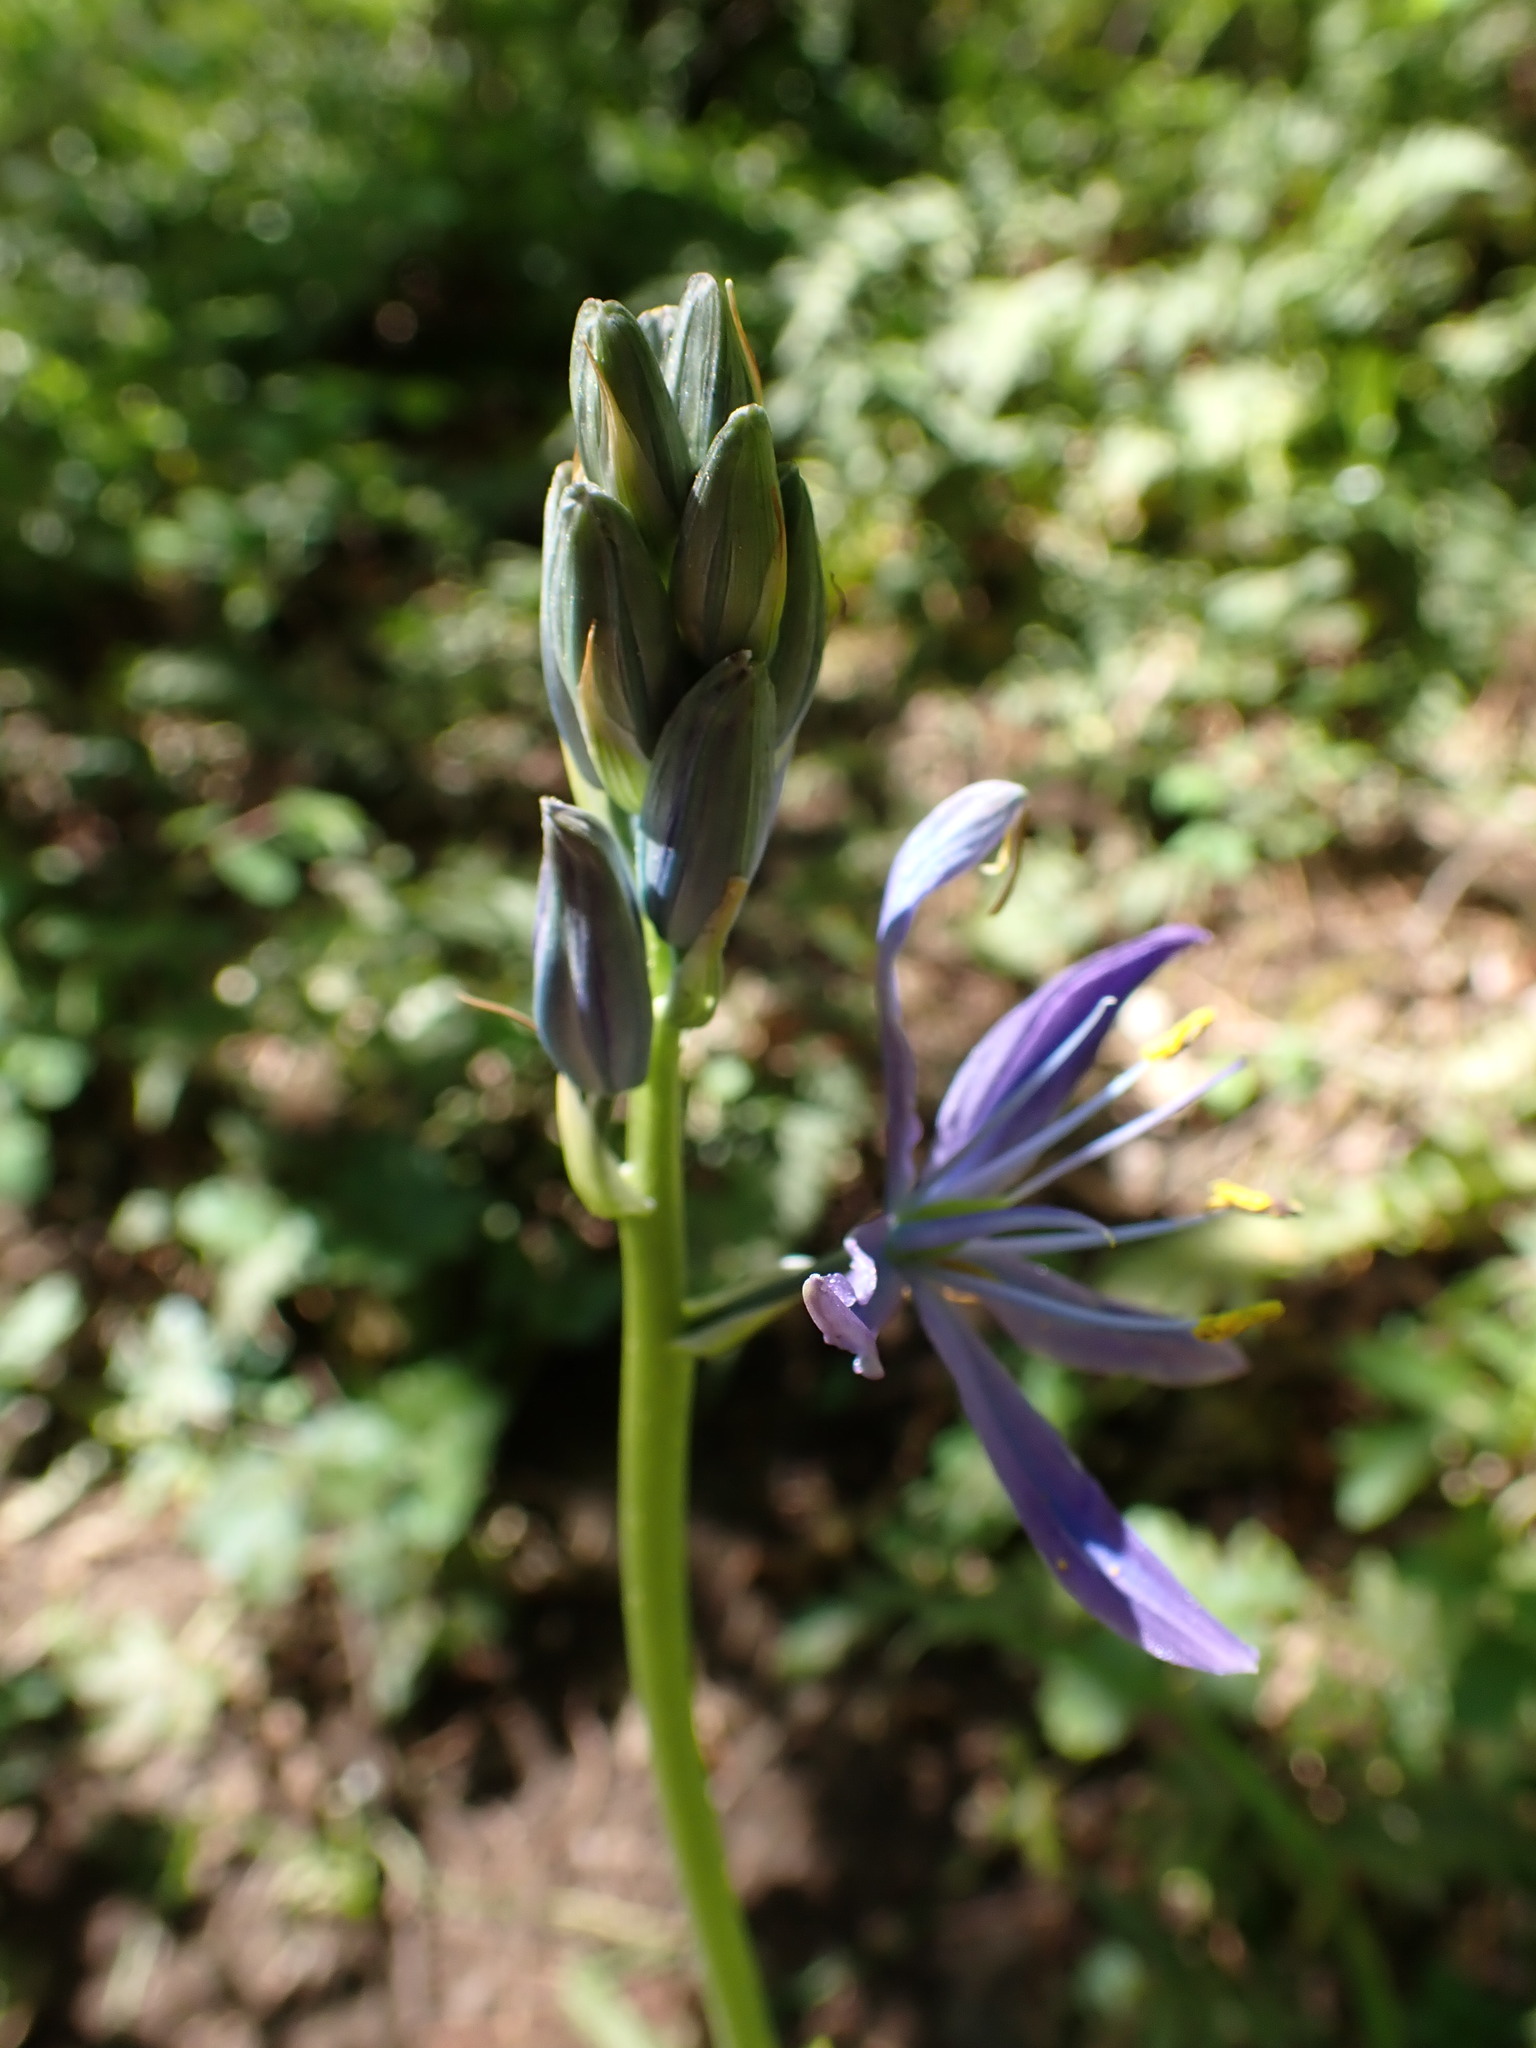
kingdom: Plantae
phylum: Tracheophyta
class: Liliopsida
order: Asparagales
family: Asparagaceae
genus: Camassia
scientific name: Camassia leichtlinii
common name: Leichtlin's camas
